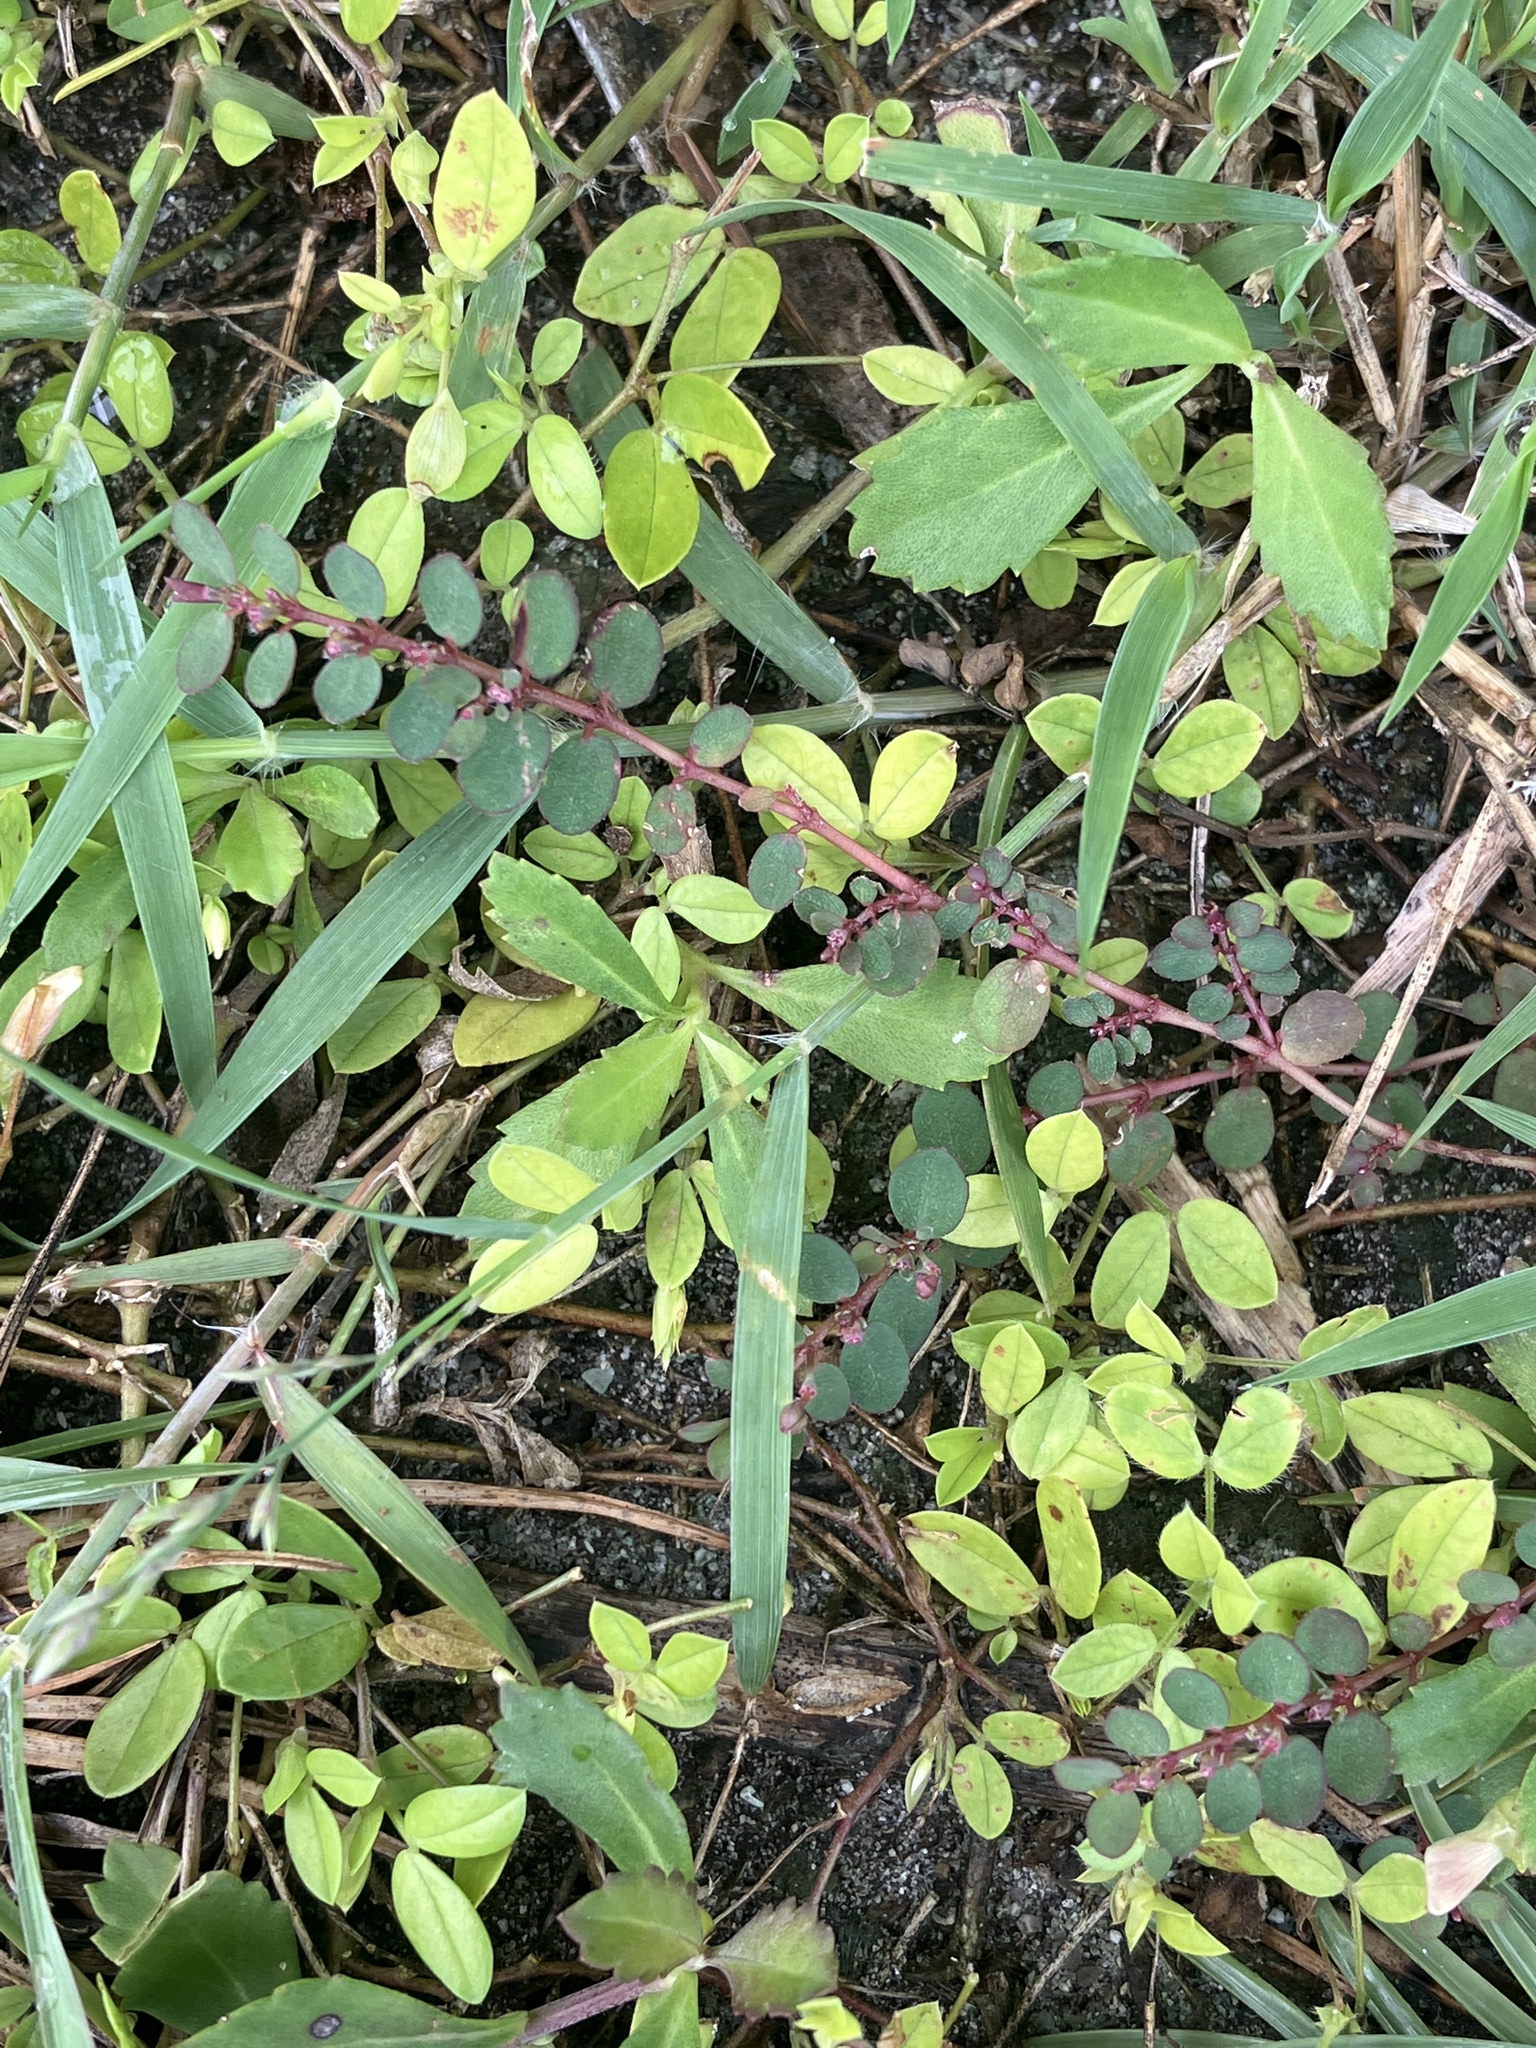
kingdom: Plantae
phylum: Tracheophyta
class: Magnoliopsida
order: Malpighiales
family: Euphorbiaceae
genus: Euphorbia
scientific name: Euphorbia prostrata
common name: Prostrate sandmat
